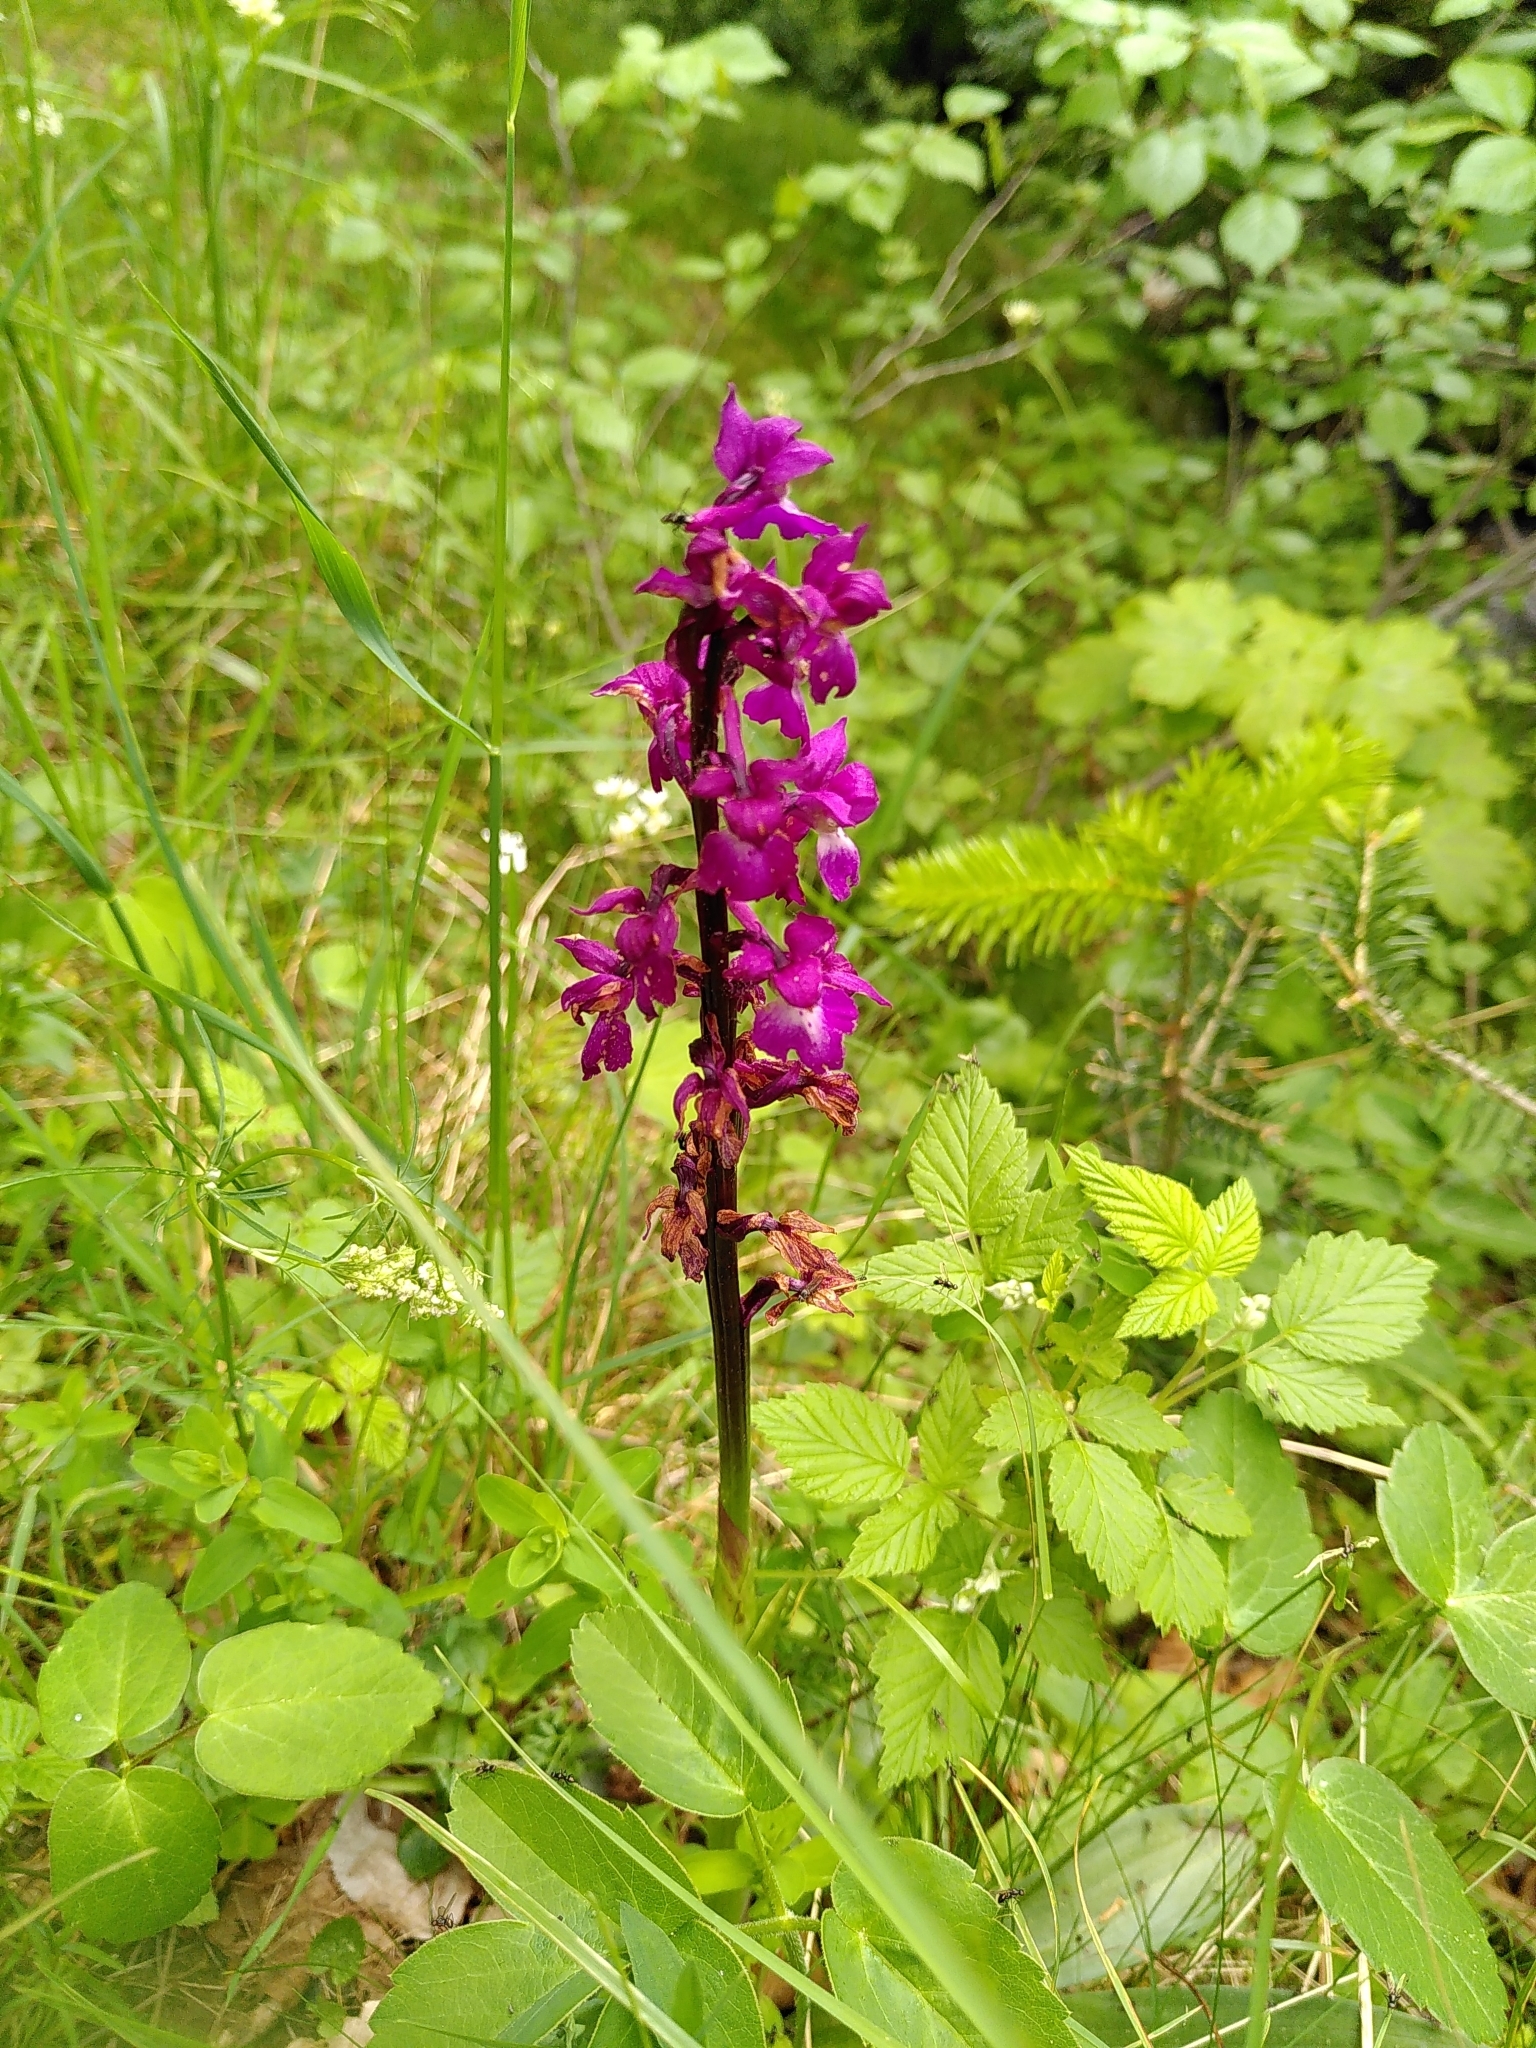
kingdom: Plantae
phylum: Tracheophyta
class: Liliopsida
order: Asparagales
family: Orchidaceae
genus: Orchis
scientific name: Orchis mascula
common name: Early-purple orchid
